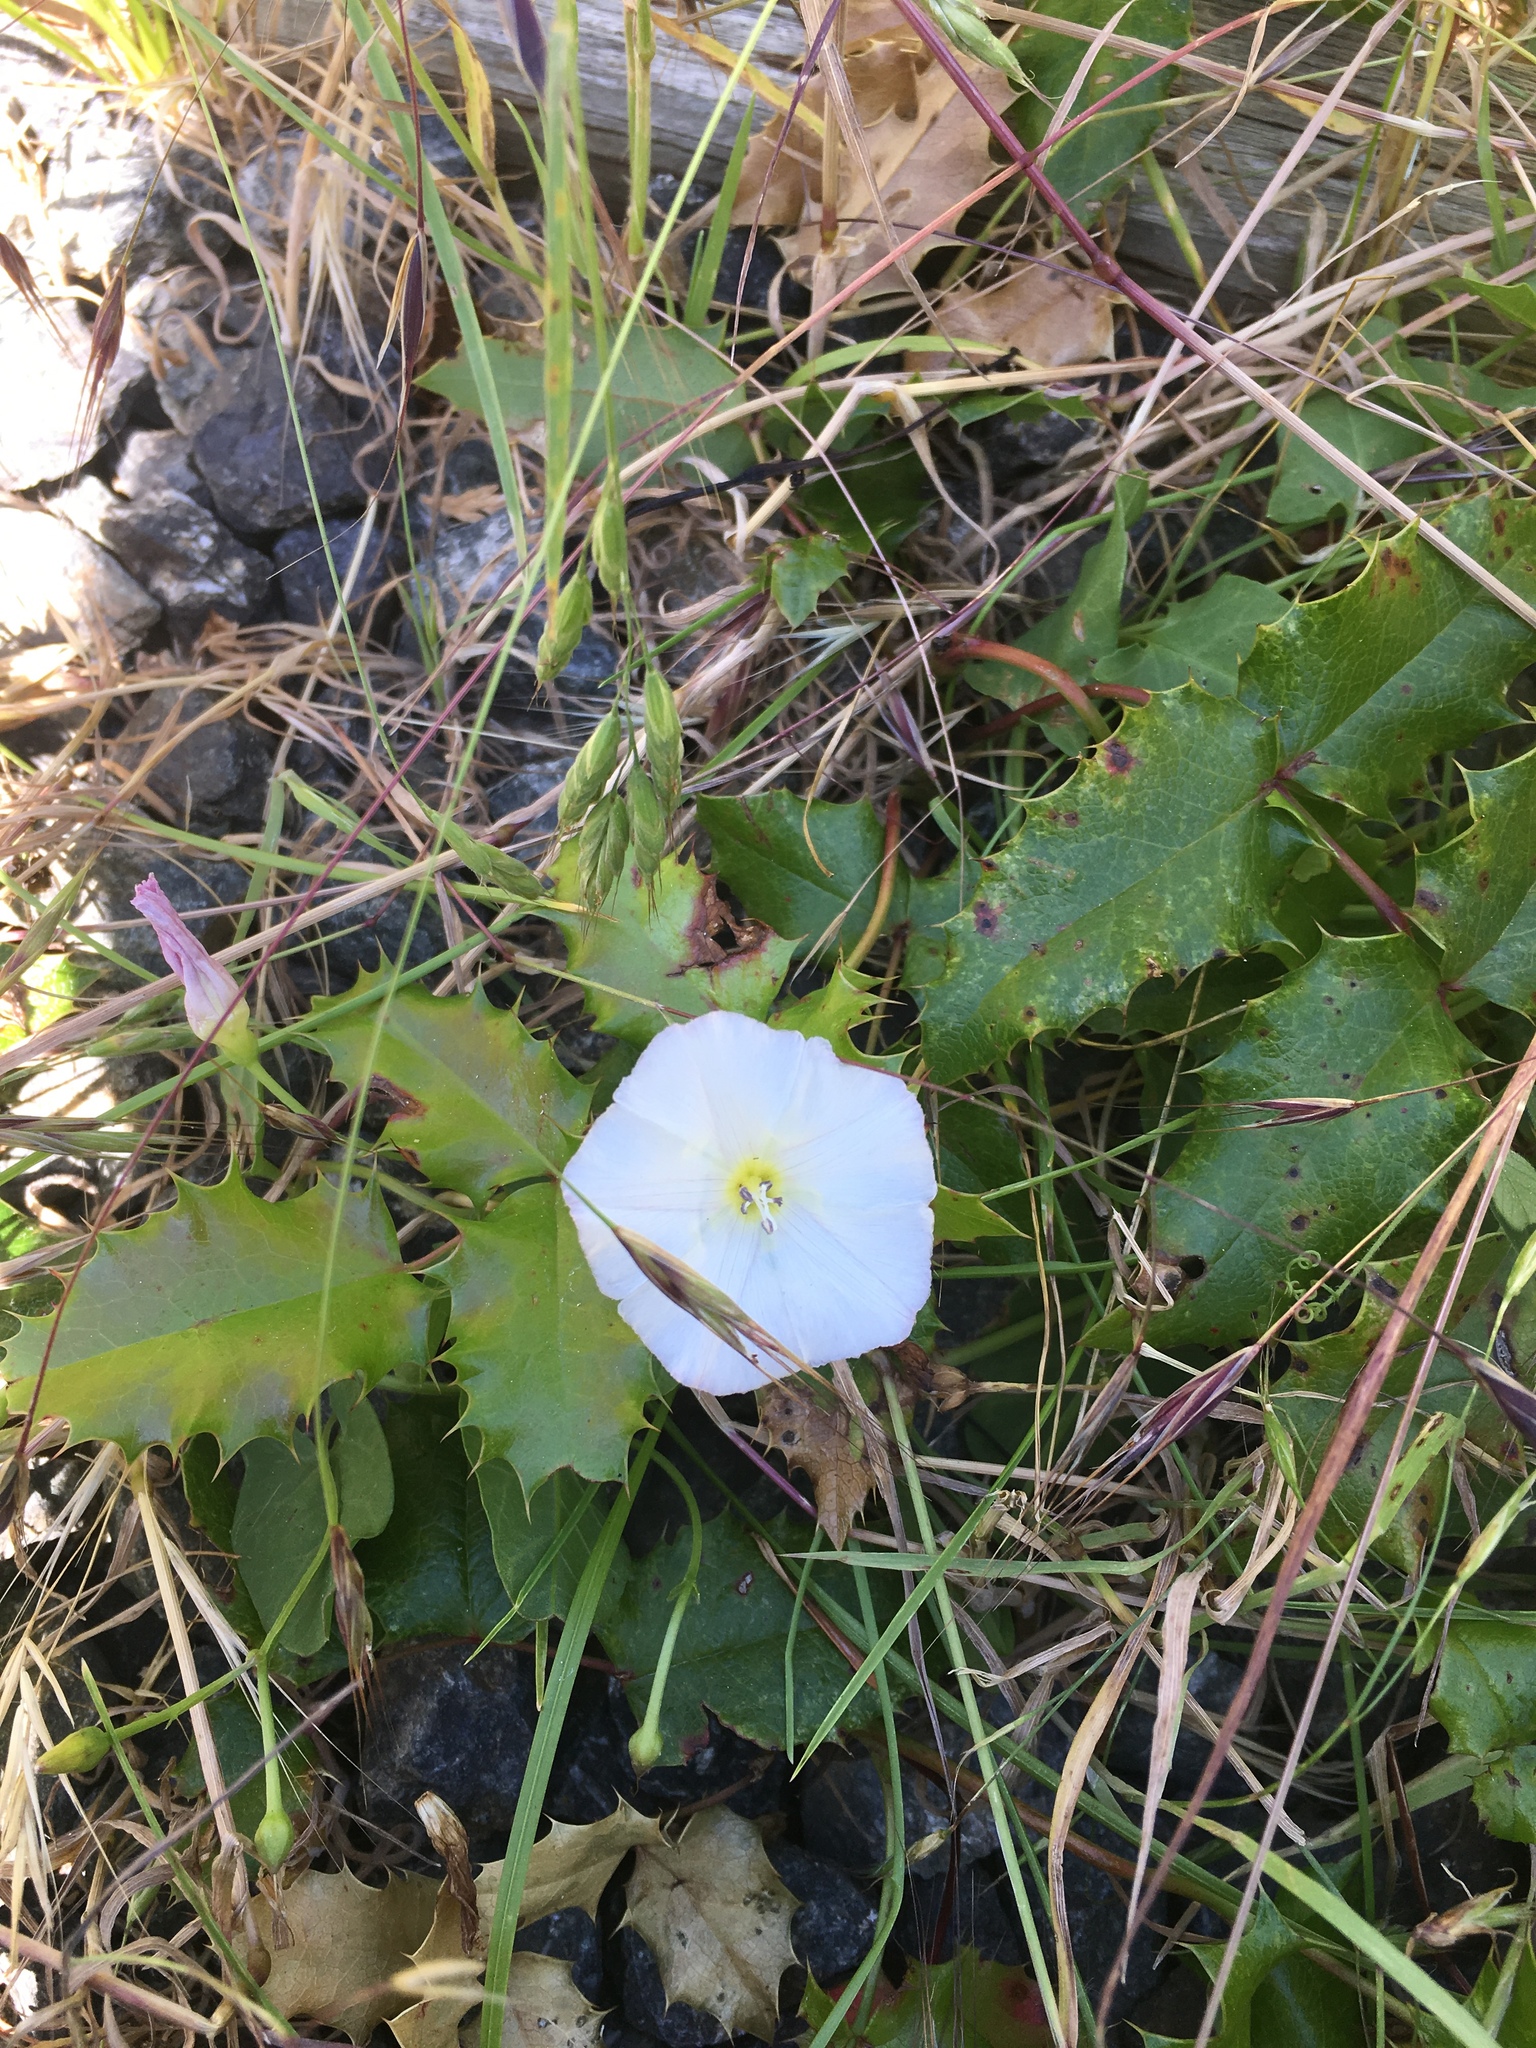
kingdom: Plantae
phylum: Tracheophyta
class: Magnoliopsida
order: Solanales
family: Convolvulaceae
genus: Convolvulus
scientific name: Convolvulus arvensis
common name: Field bindweed
